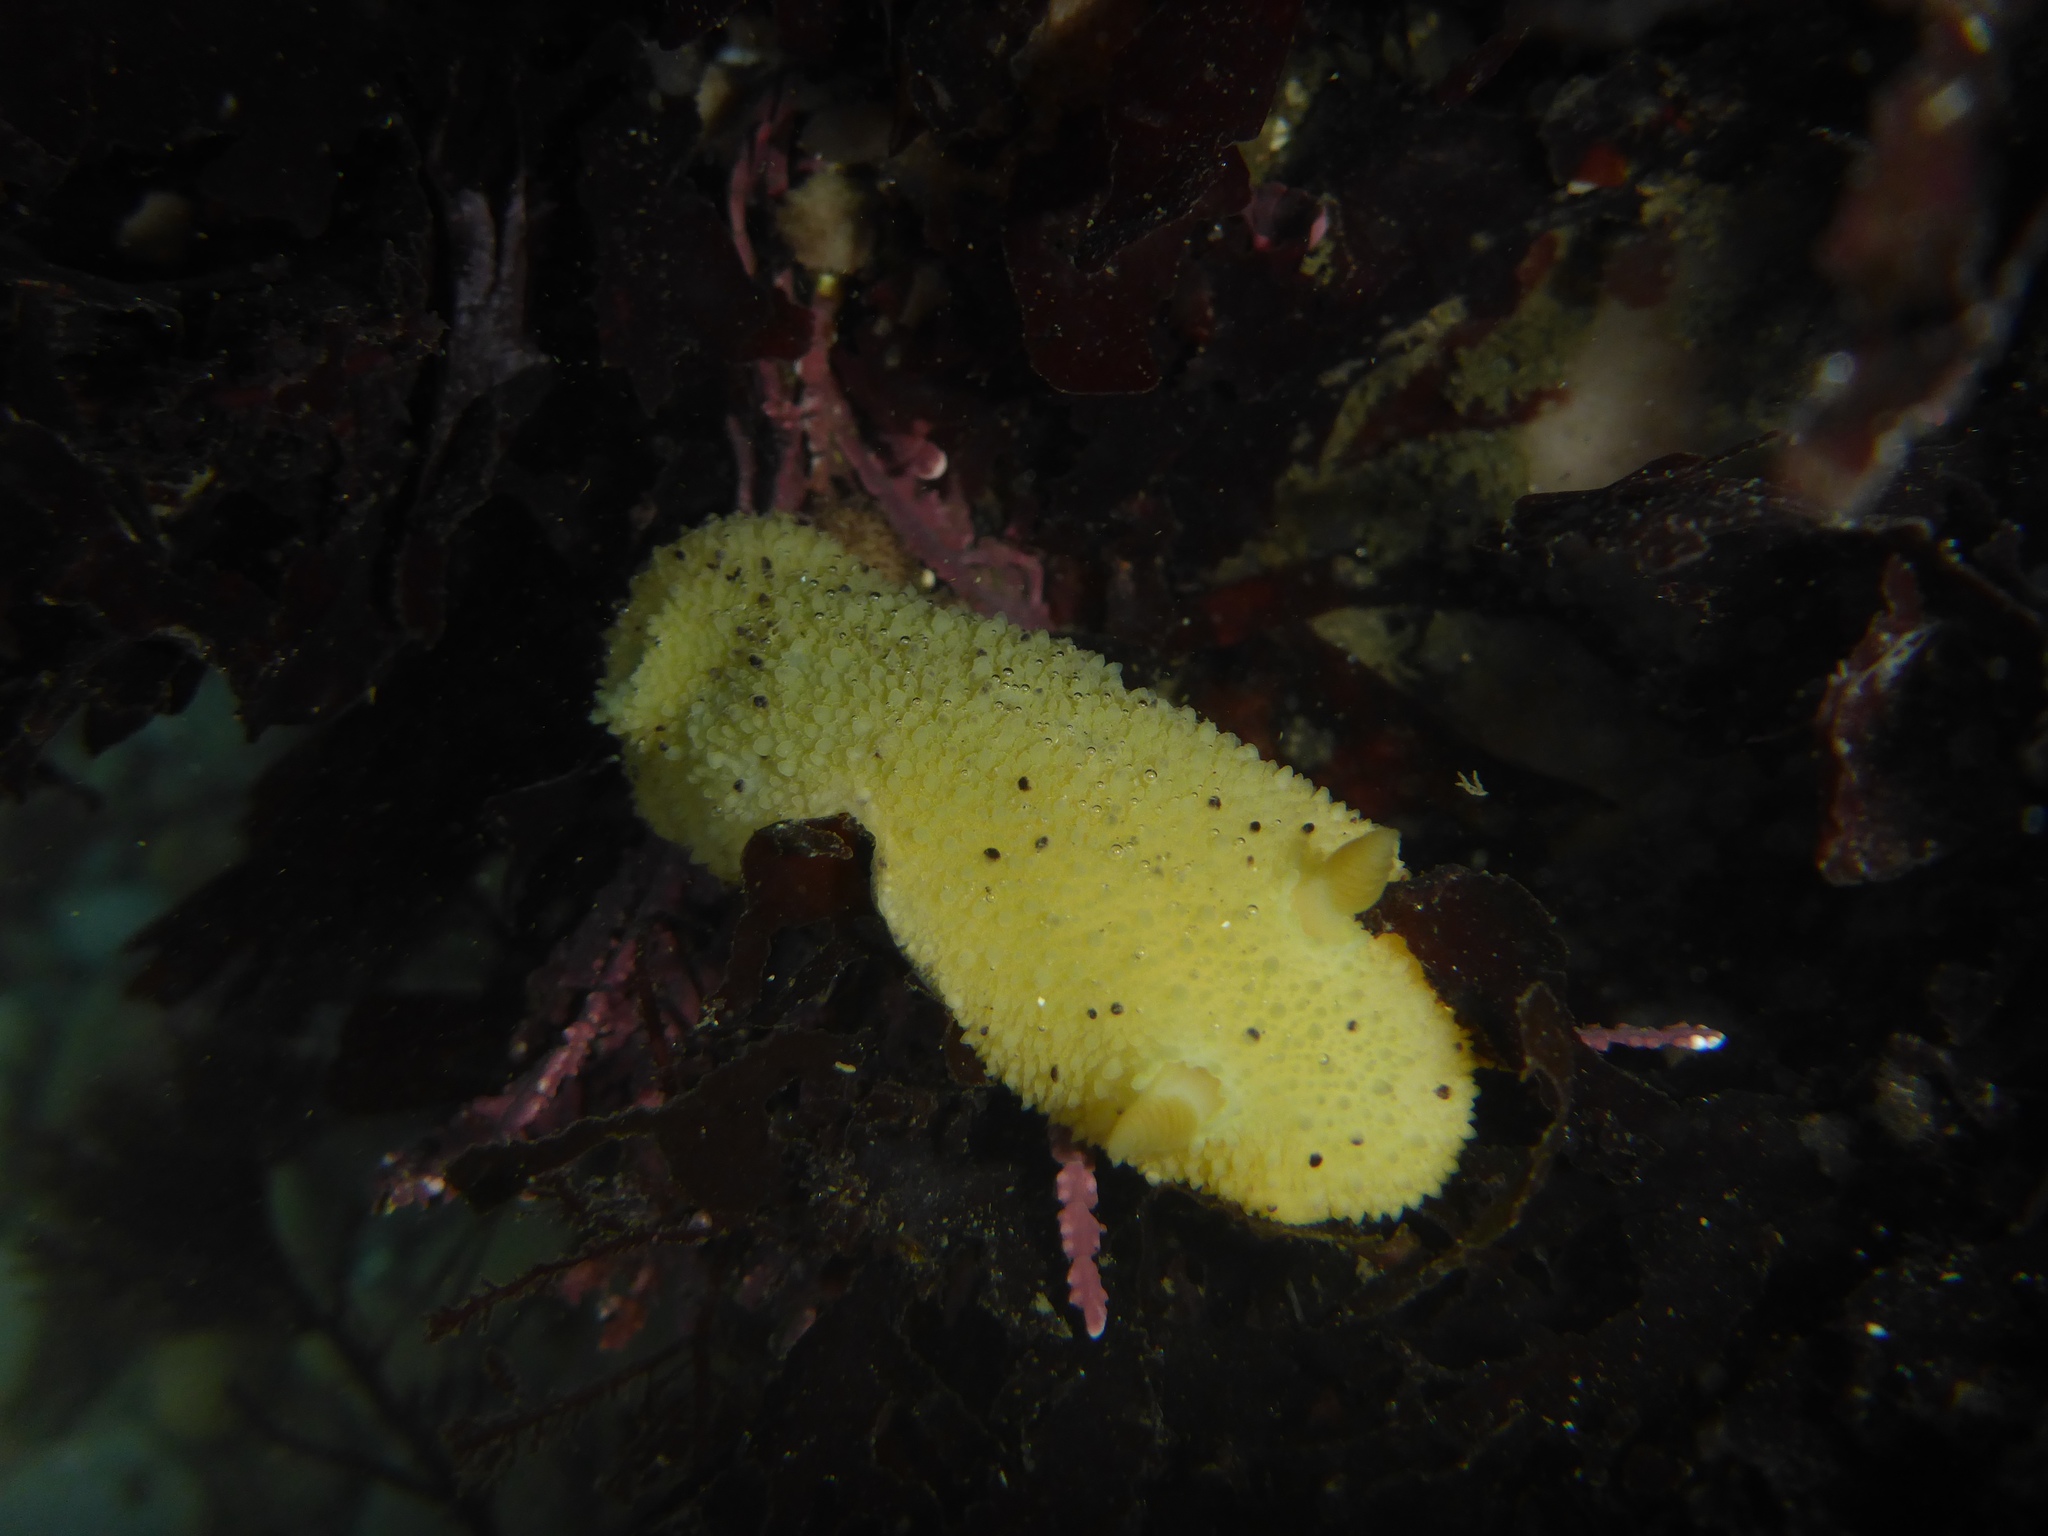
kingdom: Animalia
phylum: Mollusca
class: Gastropoda
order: Nudibranchia
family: Dorididae
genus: Doris
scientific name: Doris montereyensis
